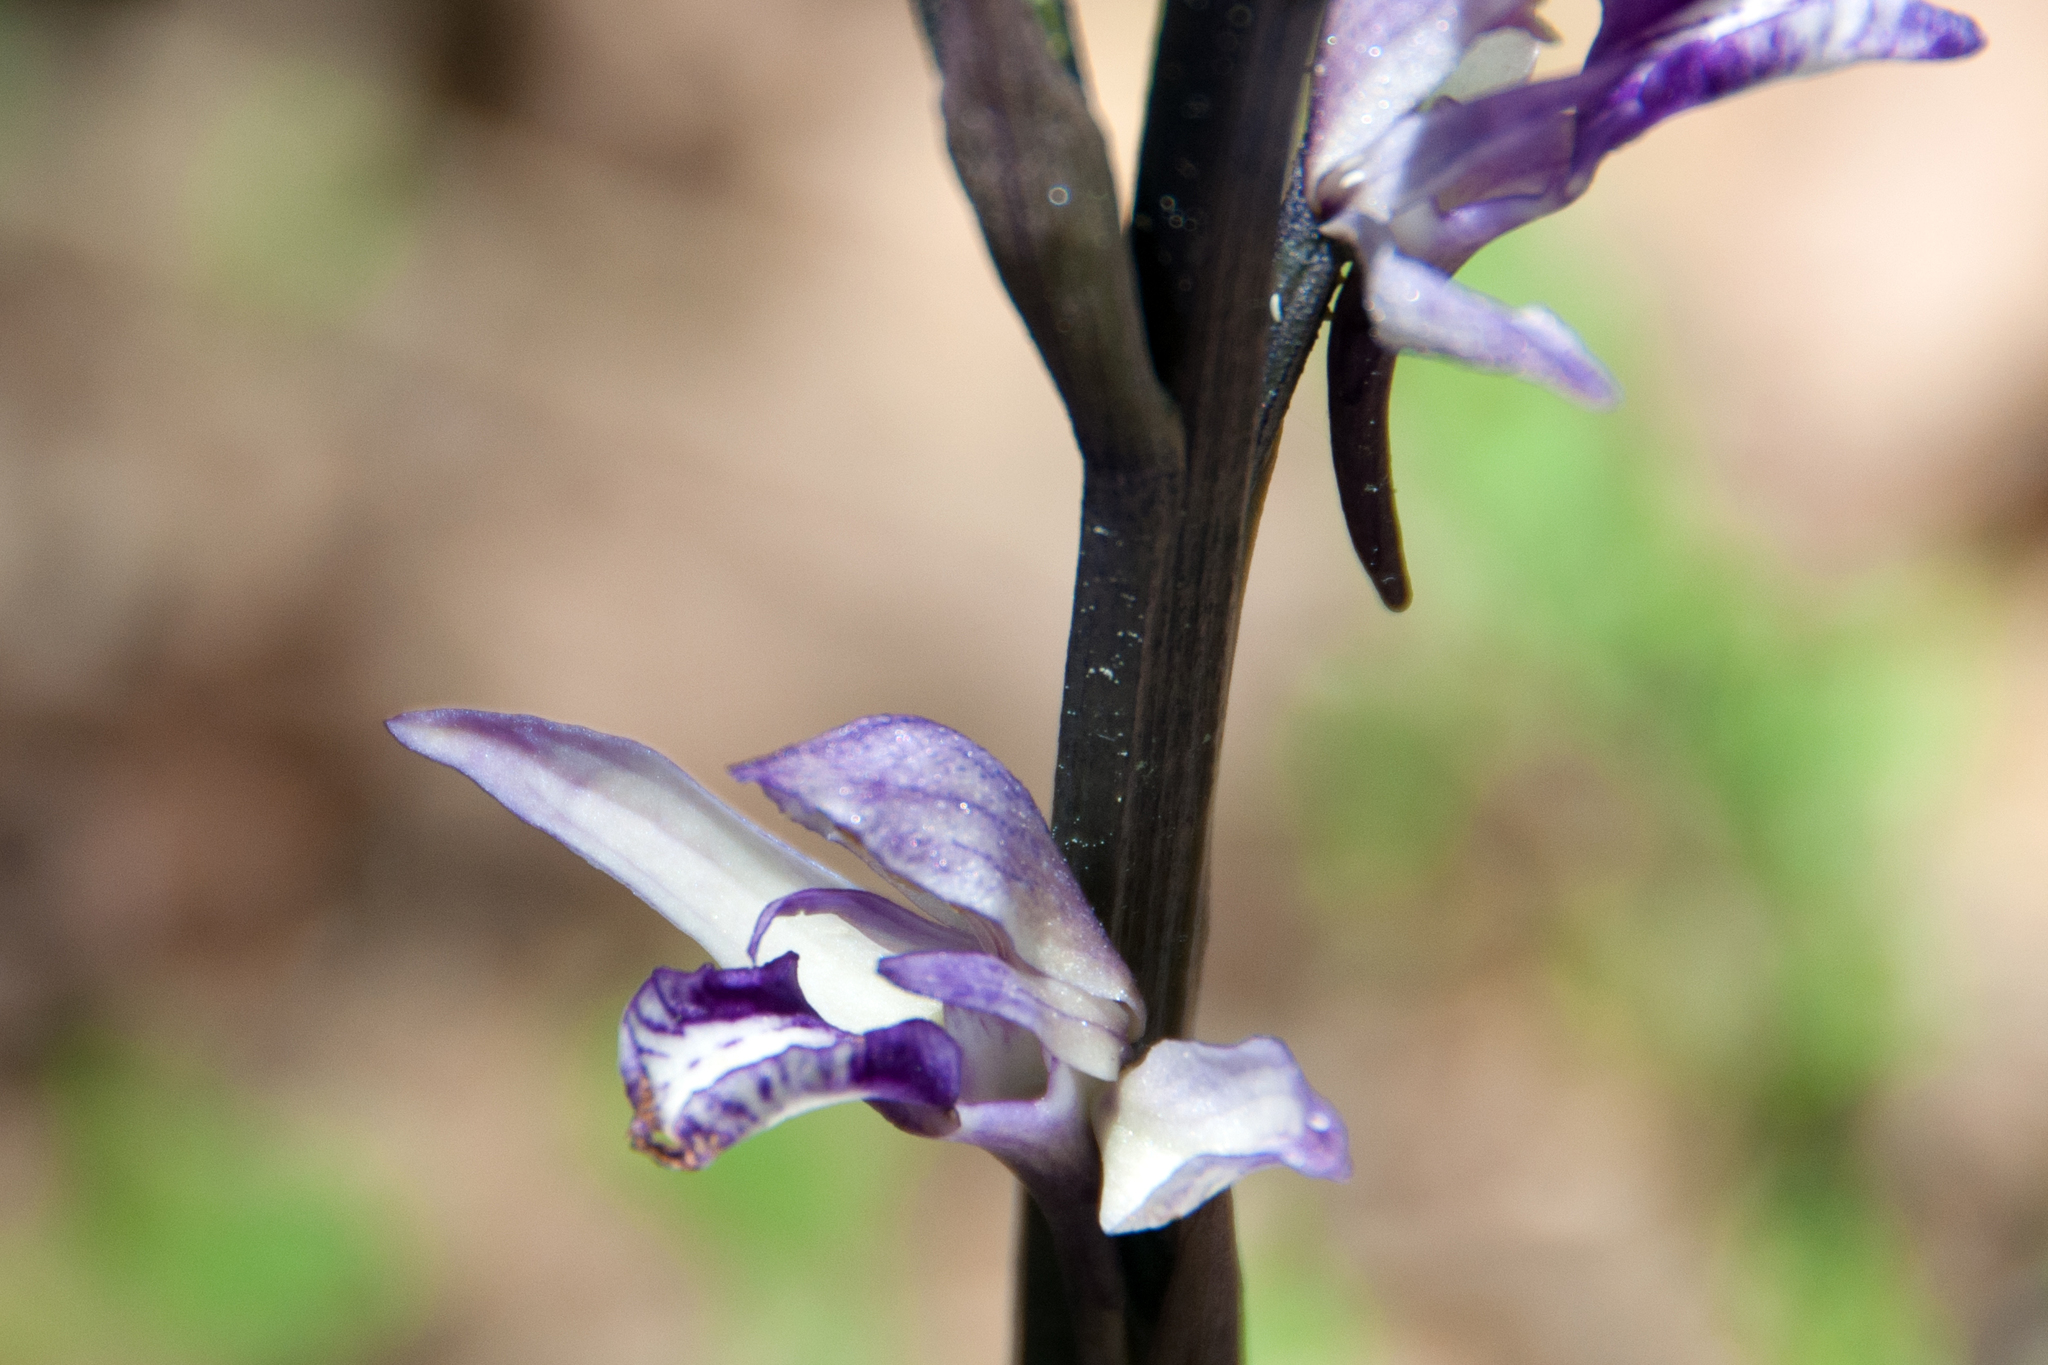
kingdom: Plantae
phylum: Tracheophyta
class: Liliopsida
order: Asparagales
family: Orchidaceae
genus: Limodorum
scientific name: Limodorum abortivum
